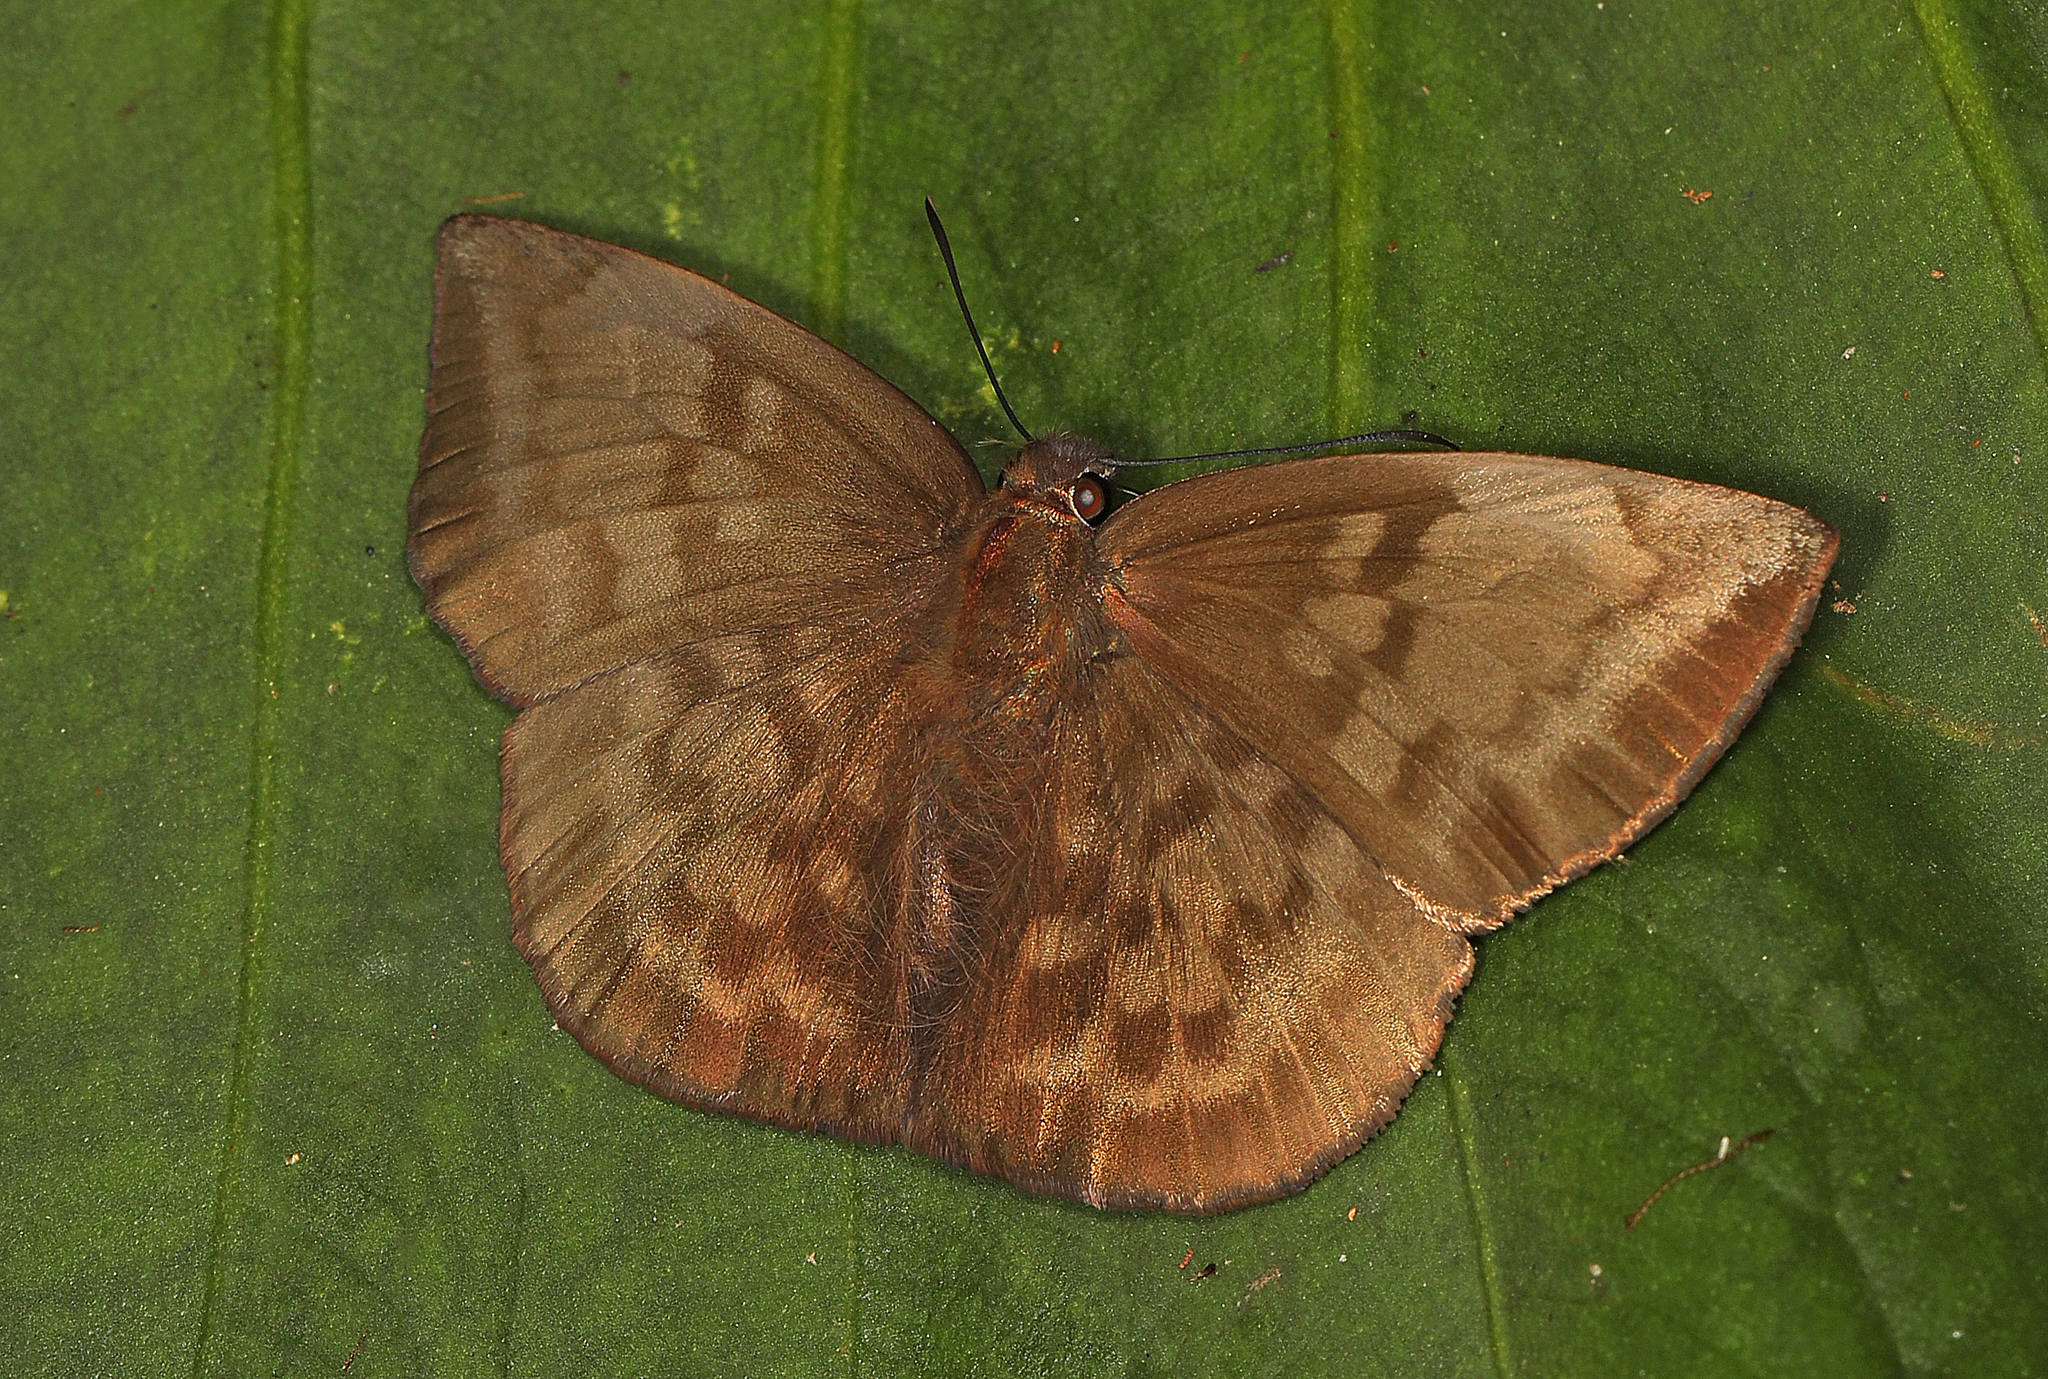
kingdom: Animalia
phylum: Arthropoda
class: Insecta
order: Lepidoptera
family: Hesperiidae
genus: Achlyodes
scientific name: Achlyodes pallida
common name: Pale sicklewing
